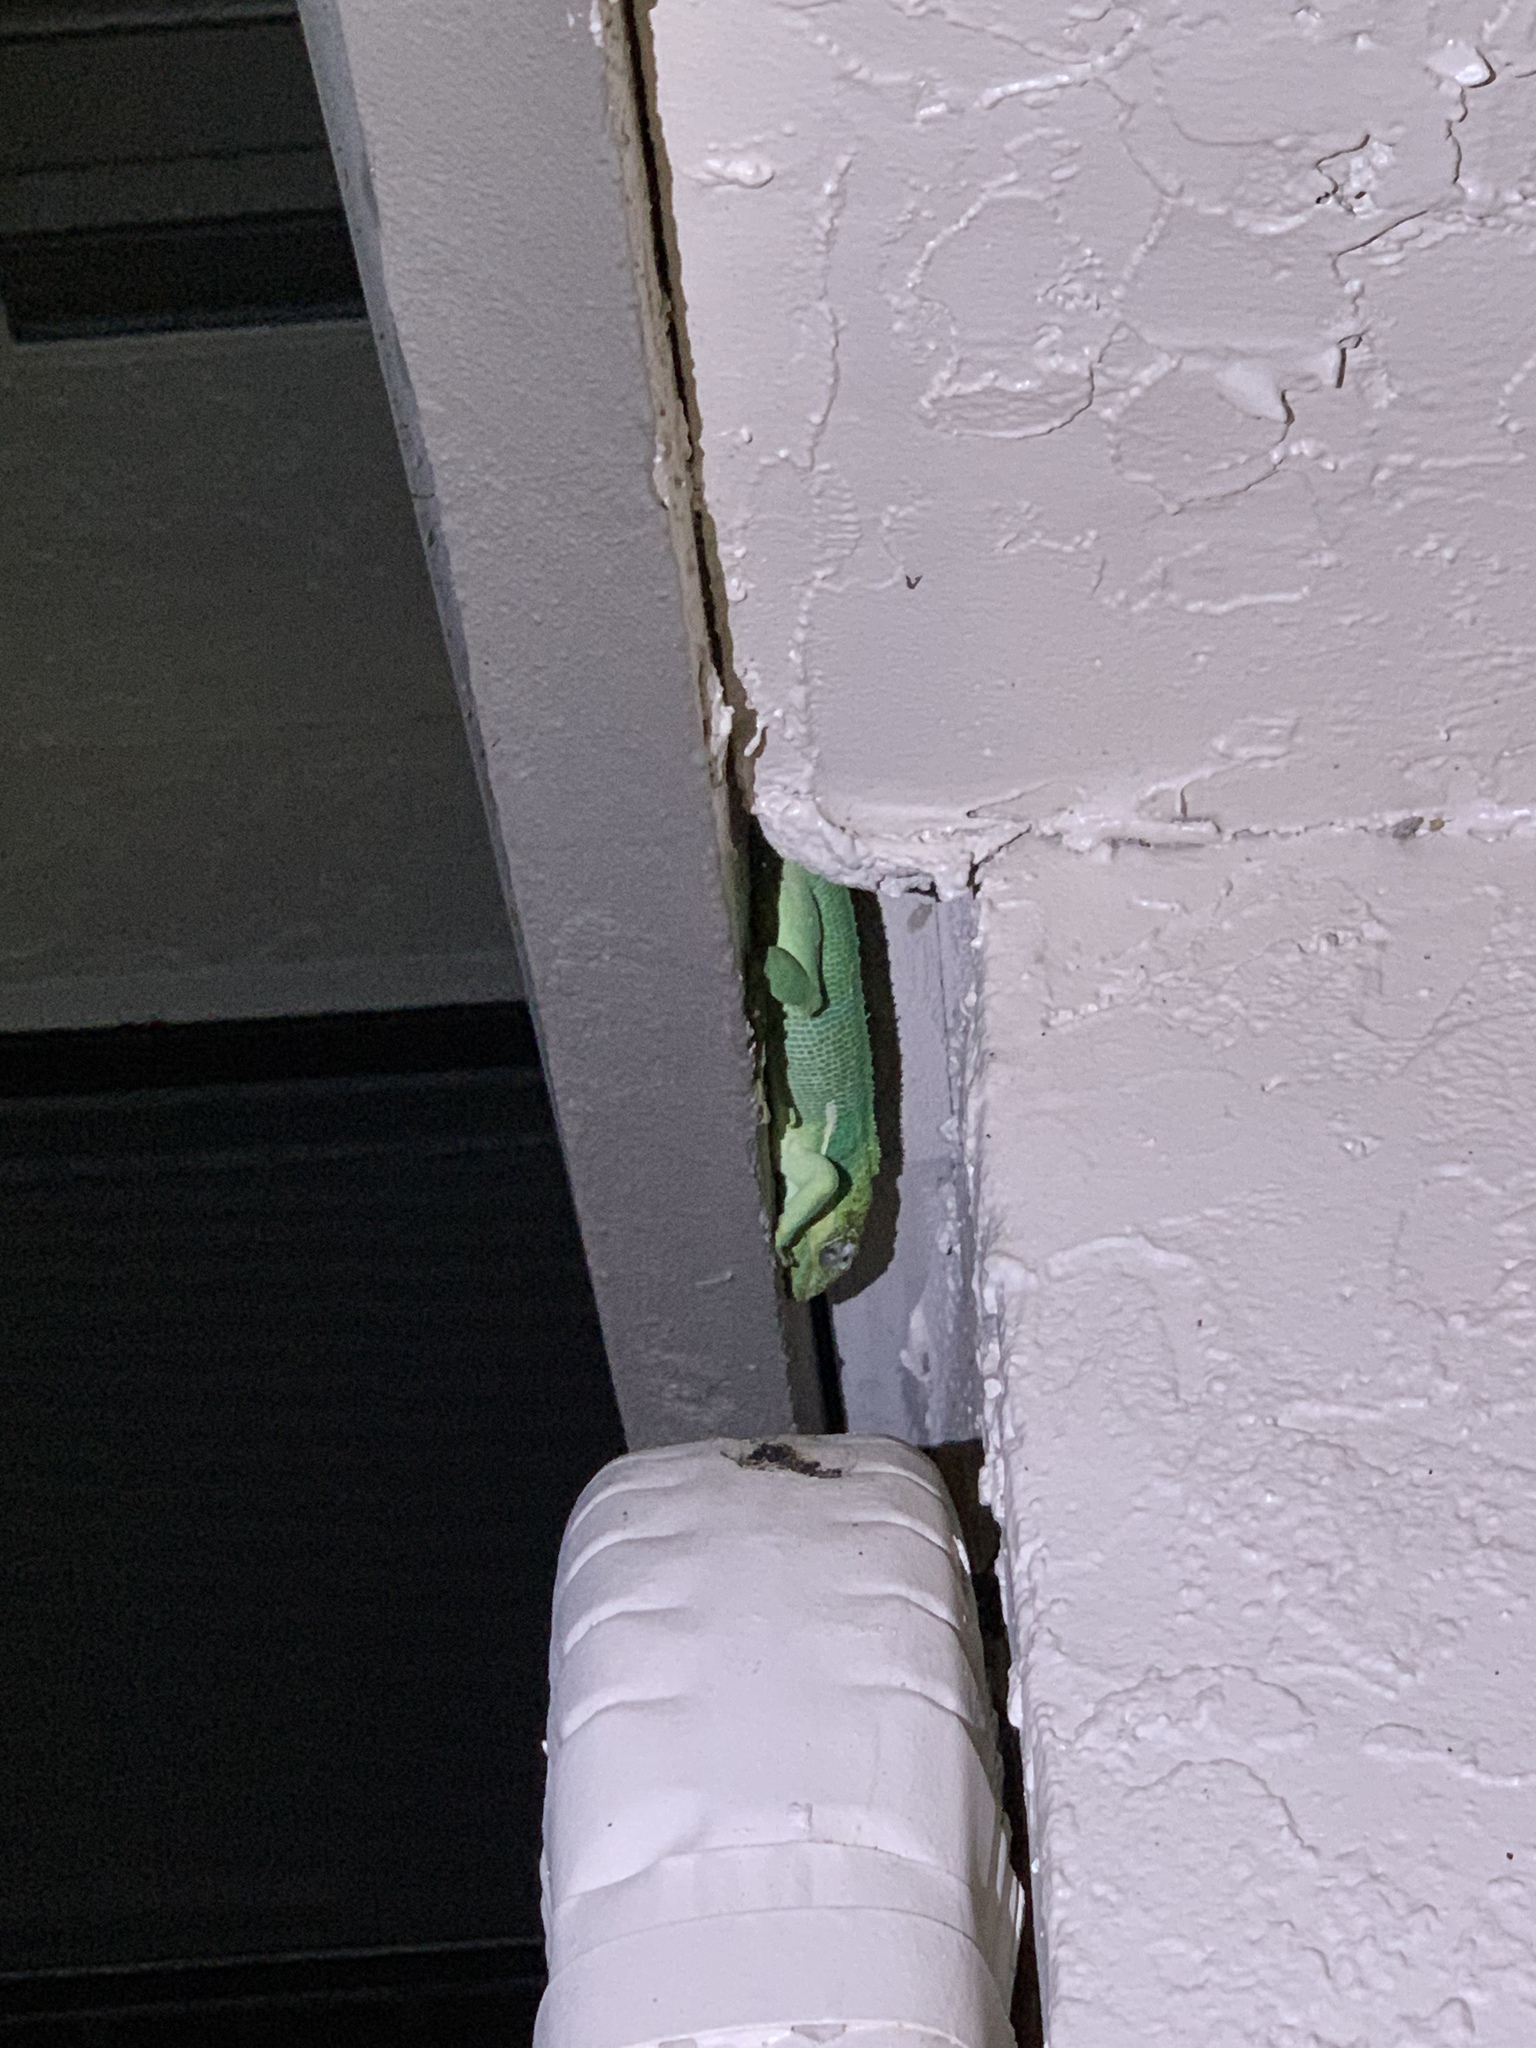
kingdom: Animalia
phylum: Chordata
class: Squamata
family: Dactyloidae
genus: Anolis
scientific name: Anolis equestris
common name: Knight anole
